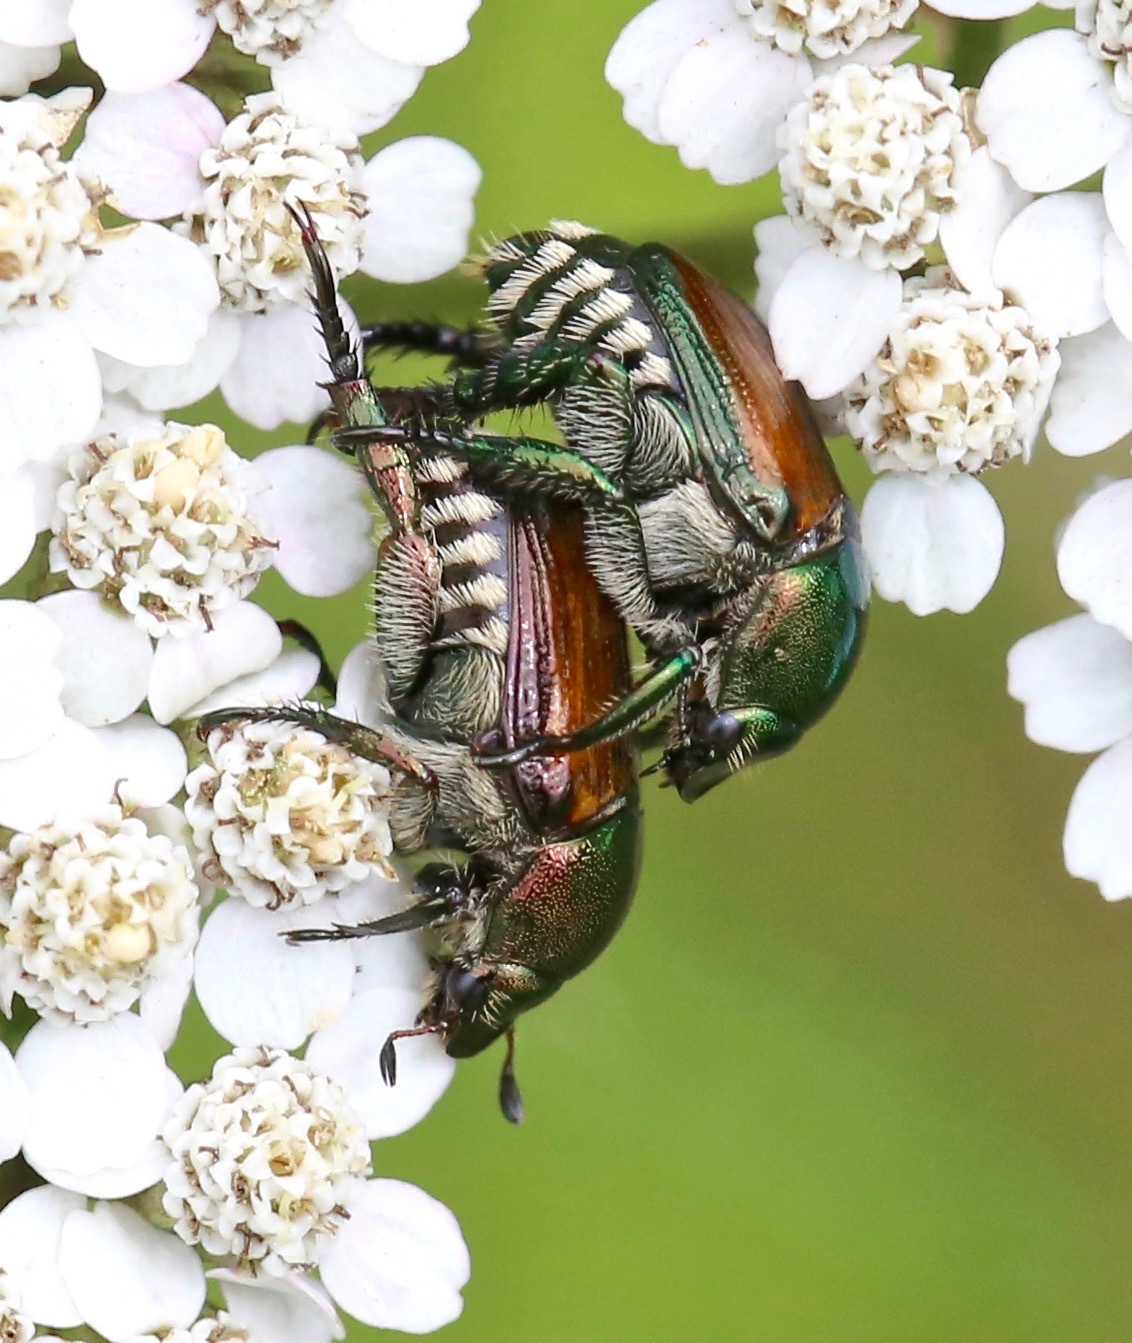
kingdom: Animalia
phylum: Arthropoda
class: Insecta
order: Coleoptera
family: Scarabaeidae
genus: Popillia
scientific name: Popillia japonica
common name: Japanese beetle
